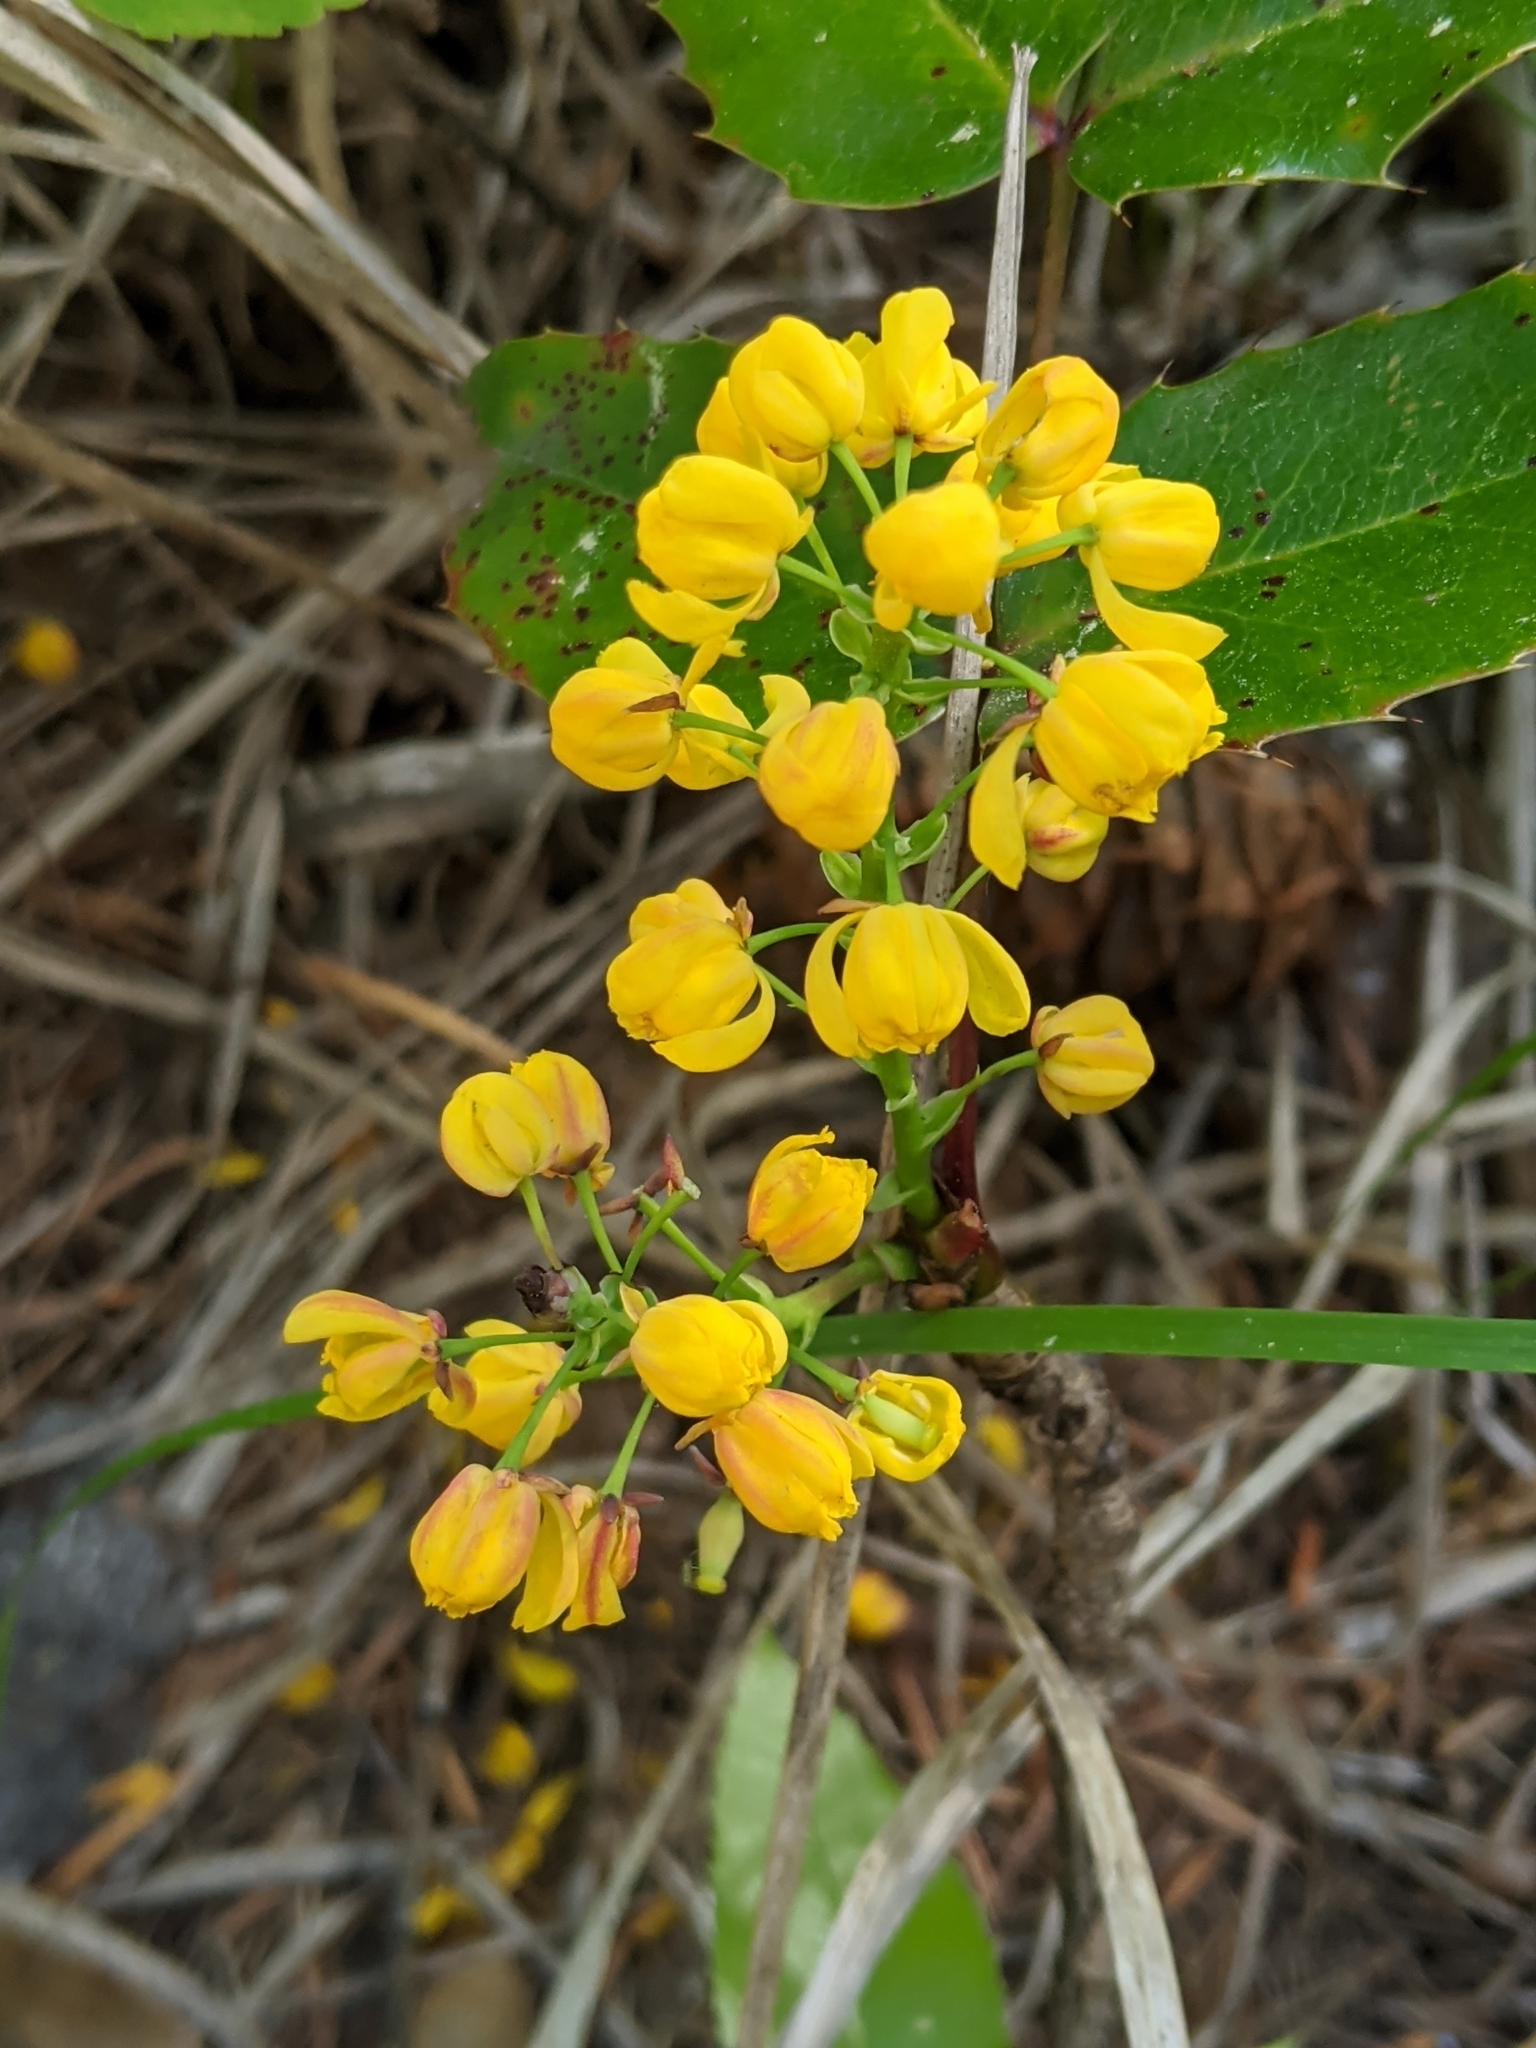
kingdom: Plantae
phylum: Tracheophyta
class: Magnoliopsida
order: Ranunculales
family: Berberidaceae
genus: Mahonia
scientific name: Mahonia aquifolium
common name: Oregon-grape
